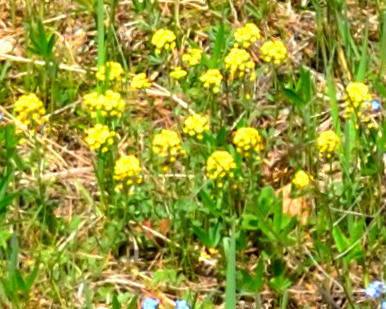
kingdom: Plantae
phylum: Tracheophyta
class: Magnoliopsida
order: Brassicales
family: Brassicaceae
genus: Alyssum
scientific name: Alyssum gmelinii
